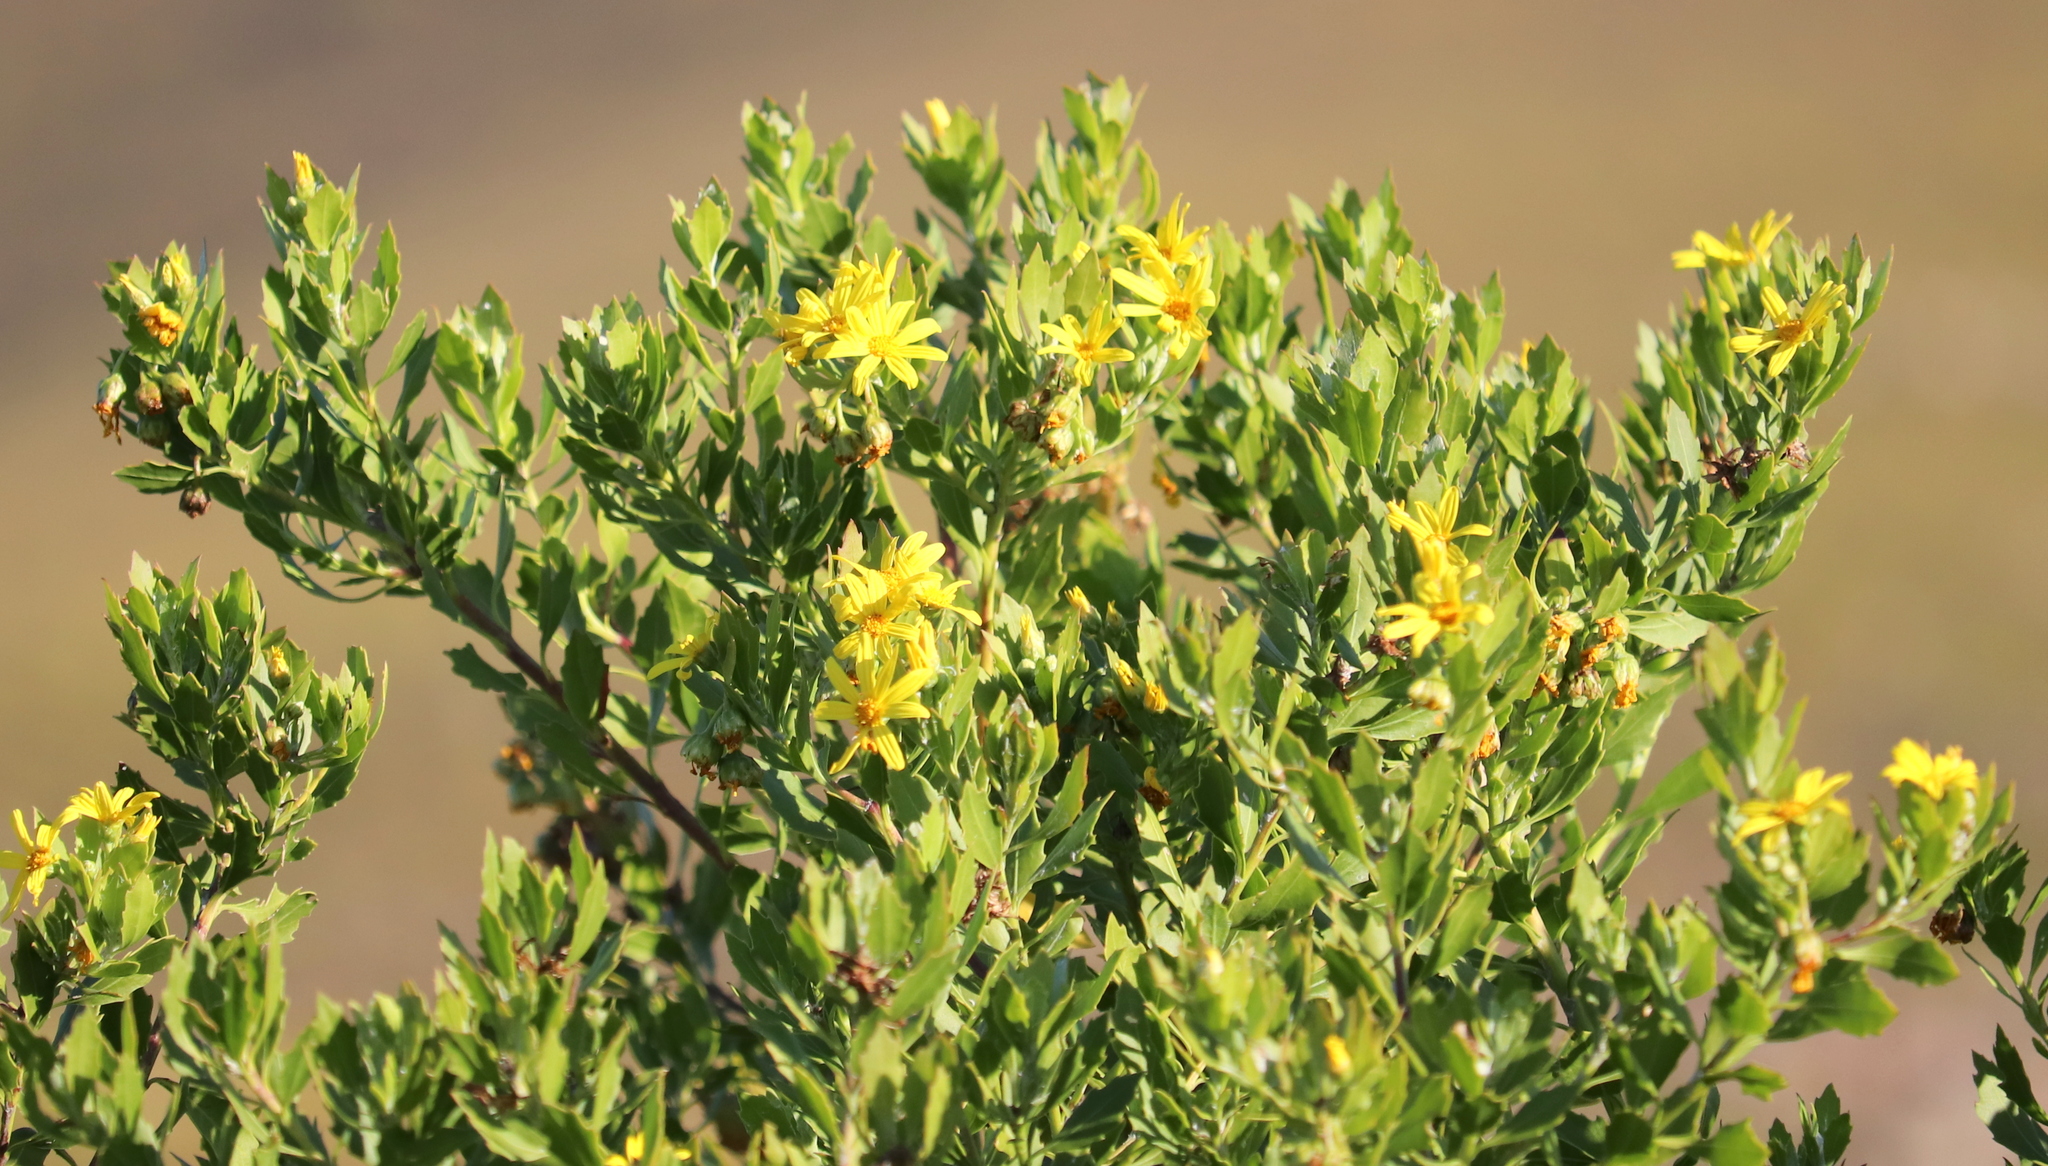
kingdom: Plantae
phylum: Tracheophyta
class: Magnoliopsida
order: Asterales
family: Asteraceae
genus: Osteospermum
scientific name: Osteospermum moniliferum
